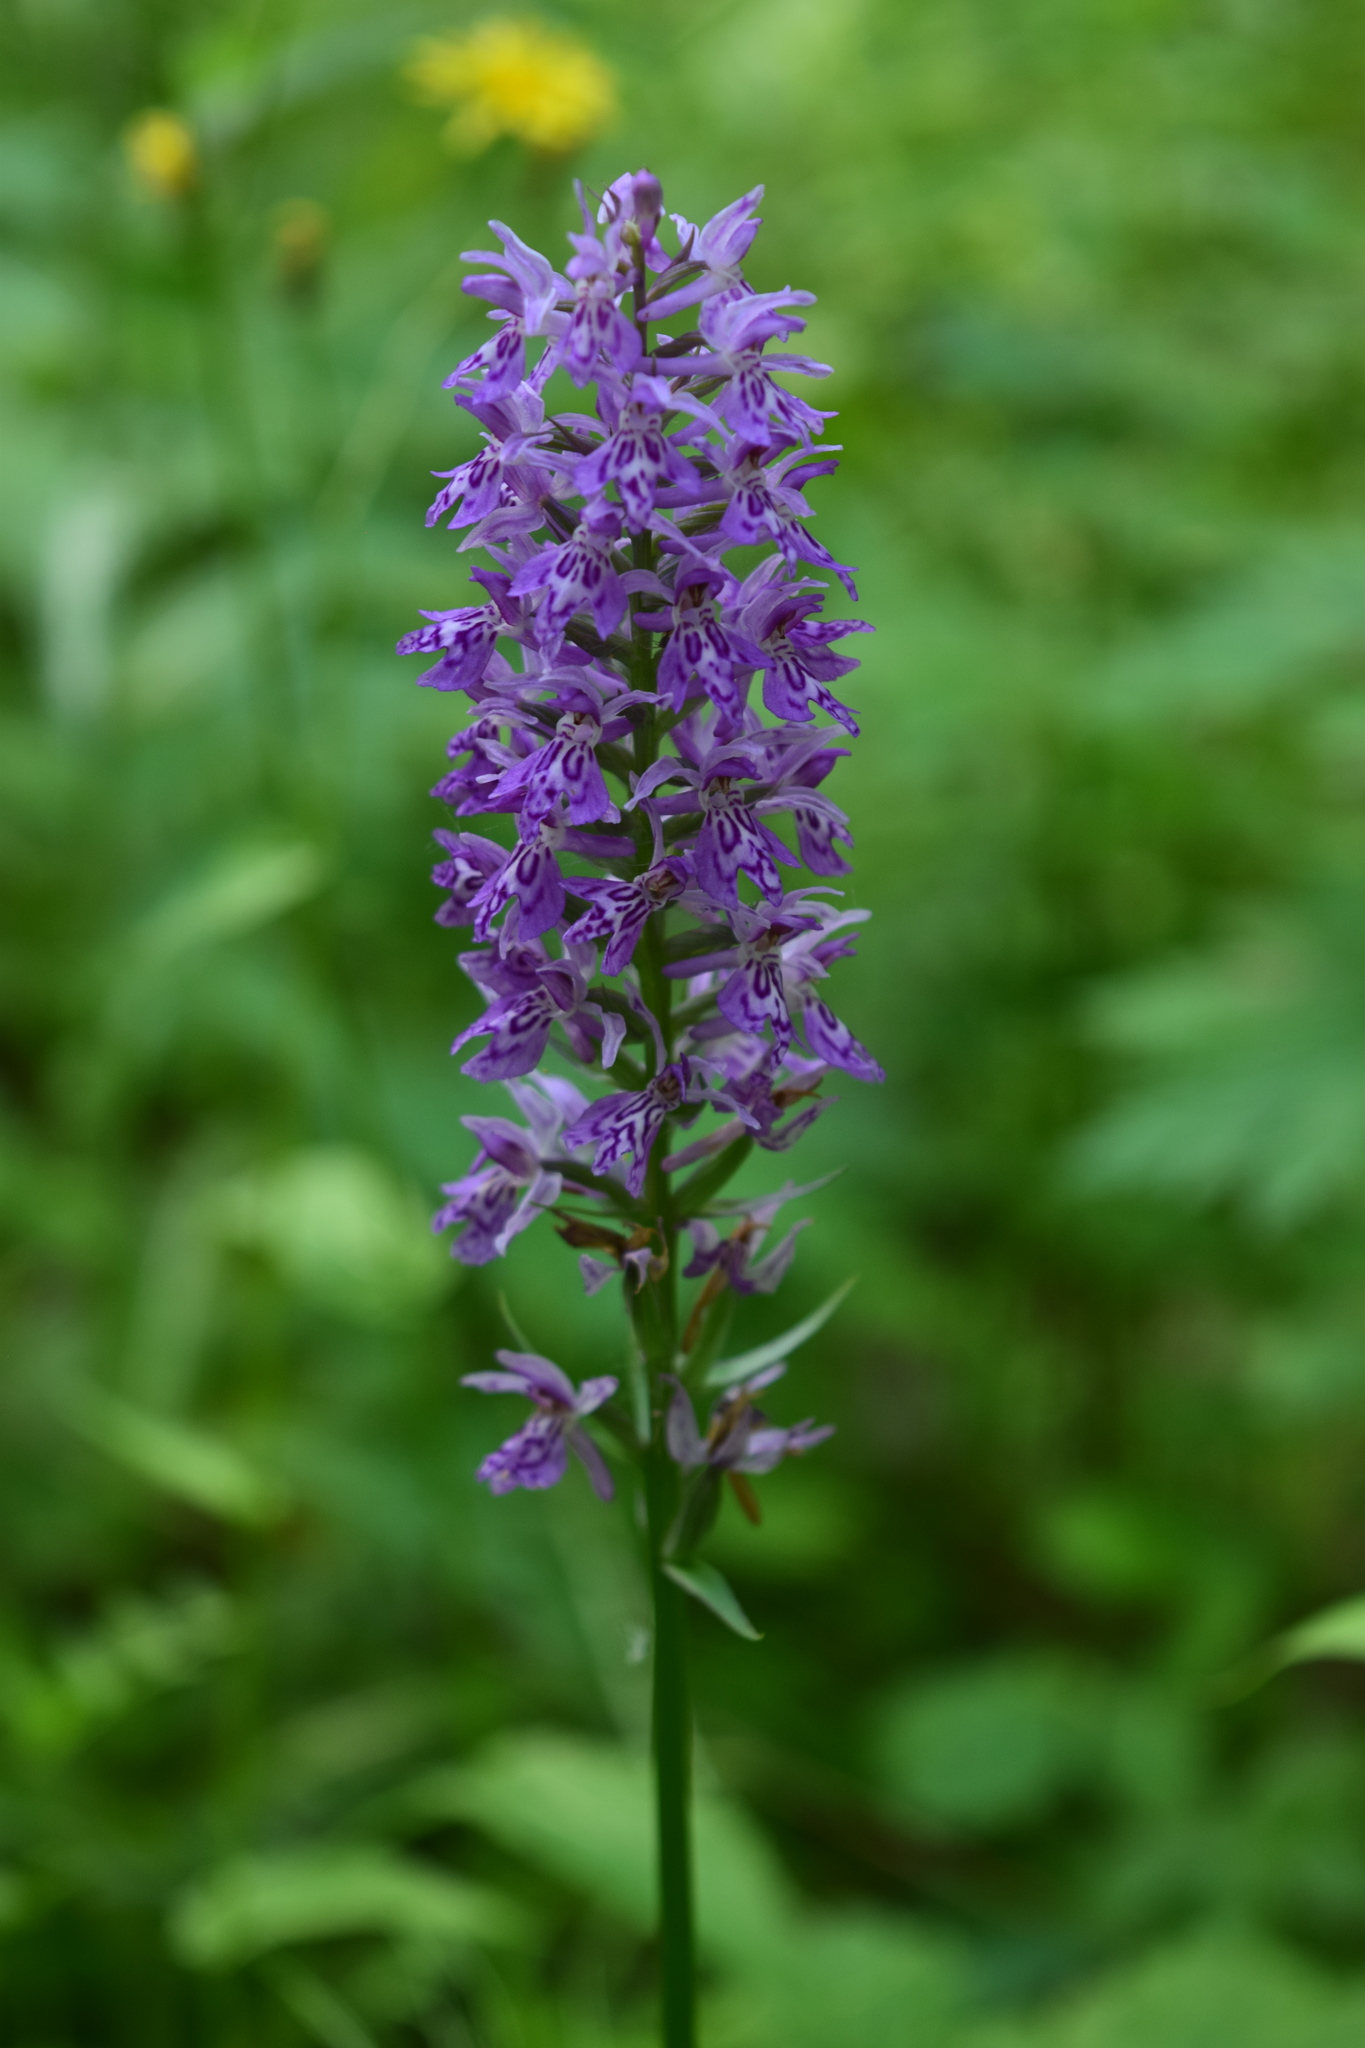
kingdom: Plantae
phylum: Tracheophyta
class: Liliopsida
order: Asparagales
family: Orchidaceae
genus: Dactylorhiza
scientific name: Dactylorhiza maculata
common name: Heath spotted-orchid
